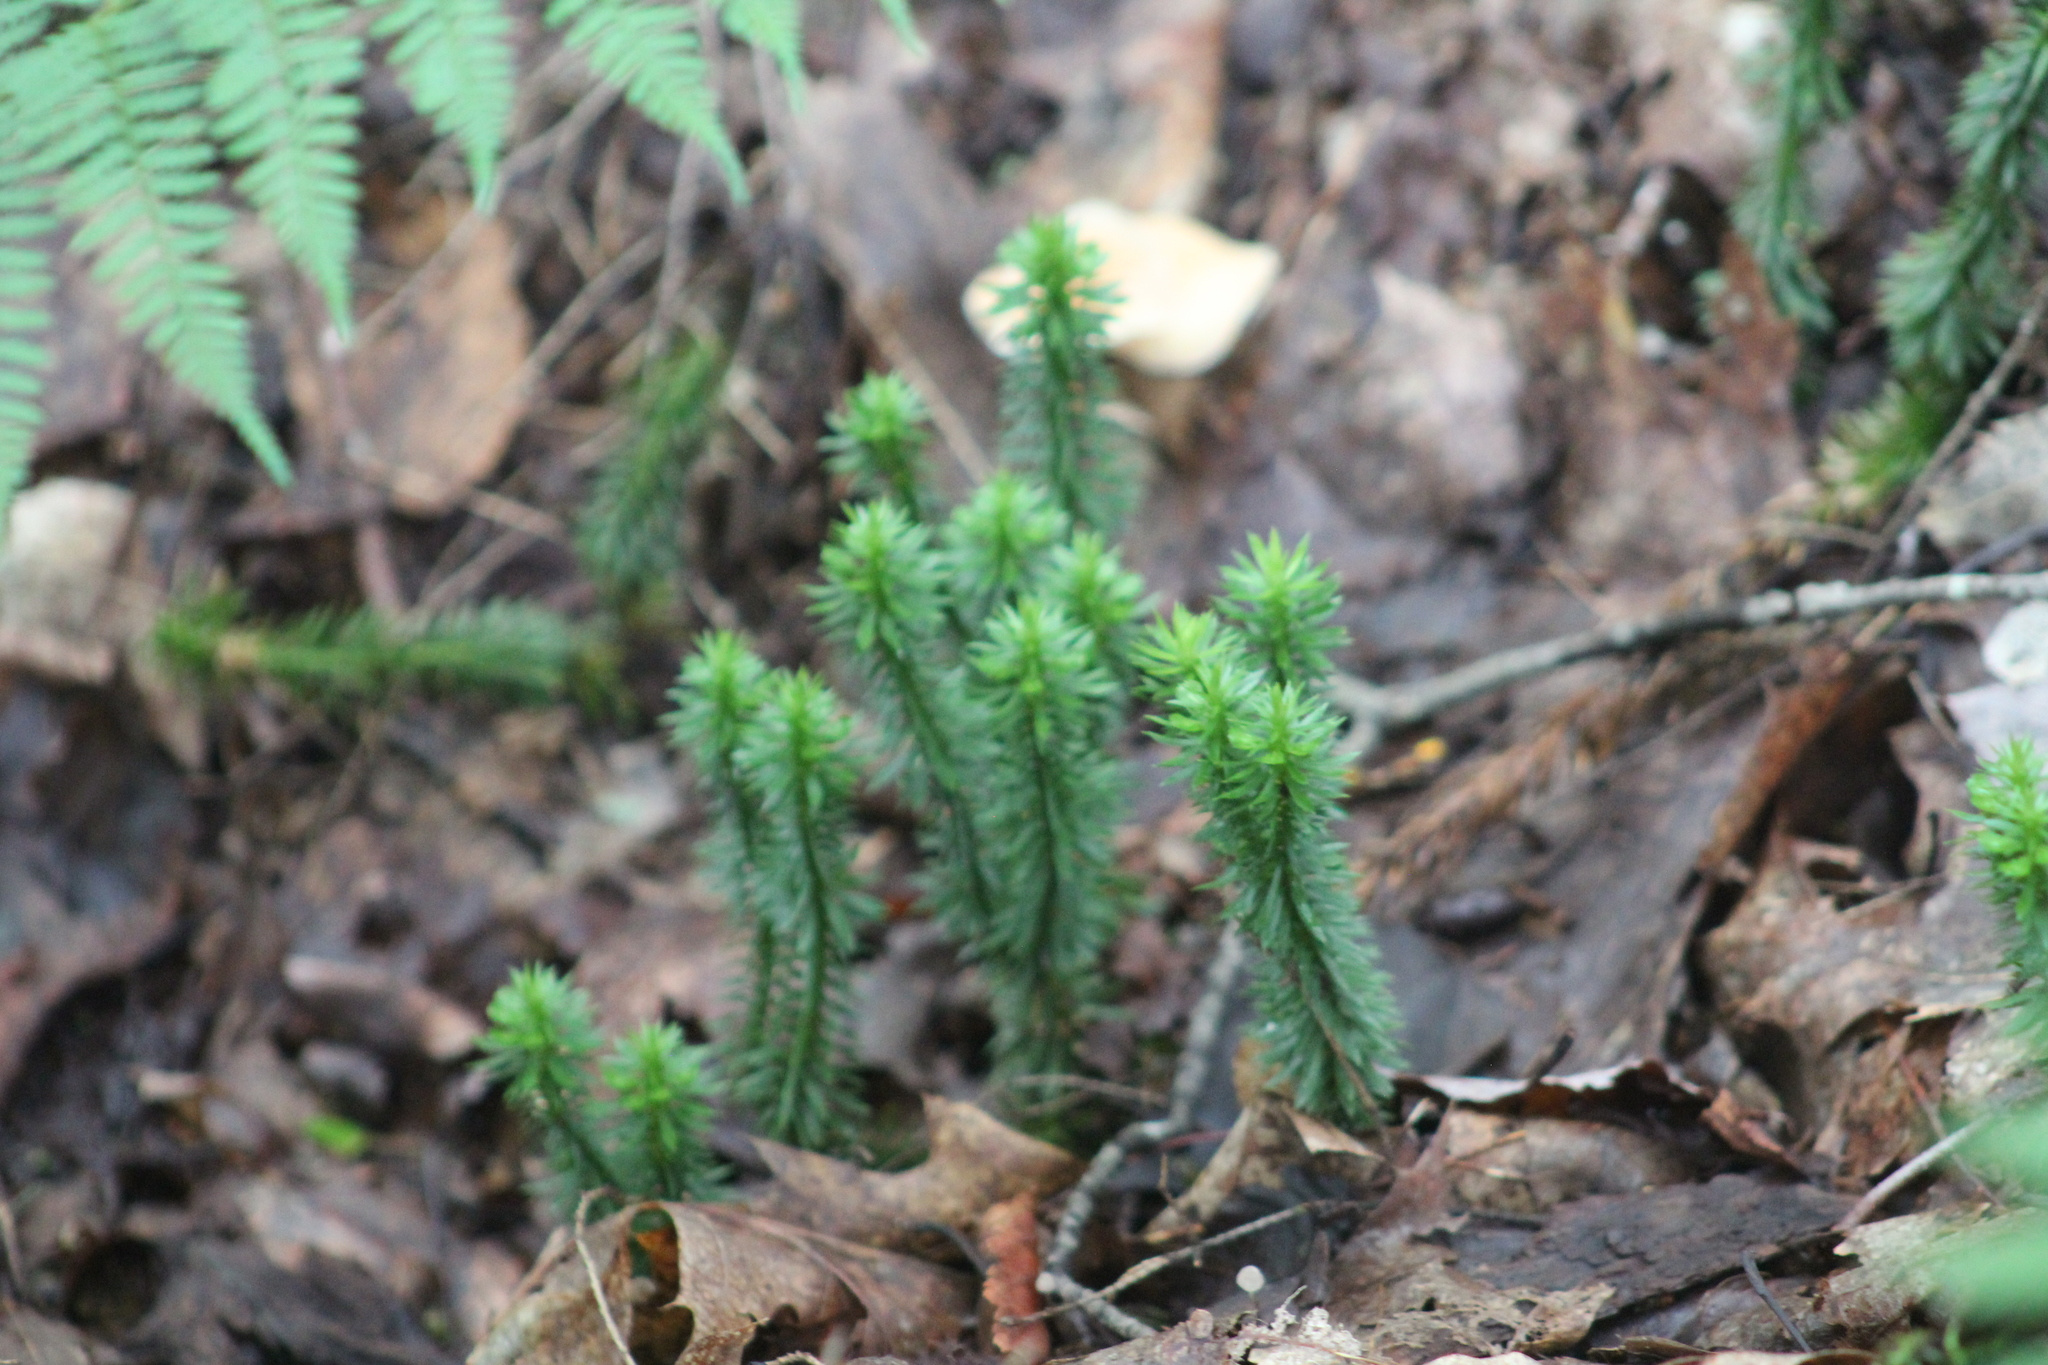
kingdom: Plantae
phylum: Tracheophyta
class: Lycopodiopsida
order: Lycopodiales
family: Lycopodiaceae
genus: Huperzia
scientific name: Huperzia lucidula
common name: Shining clubmoss
